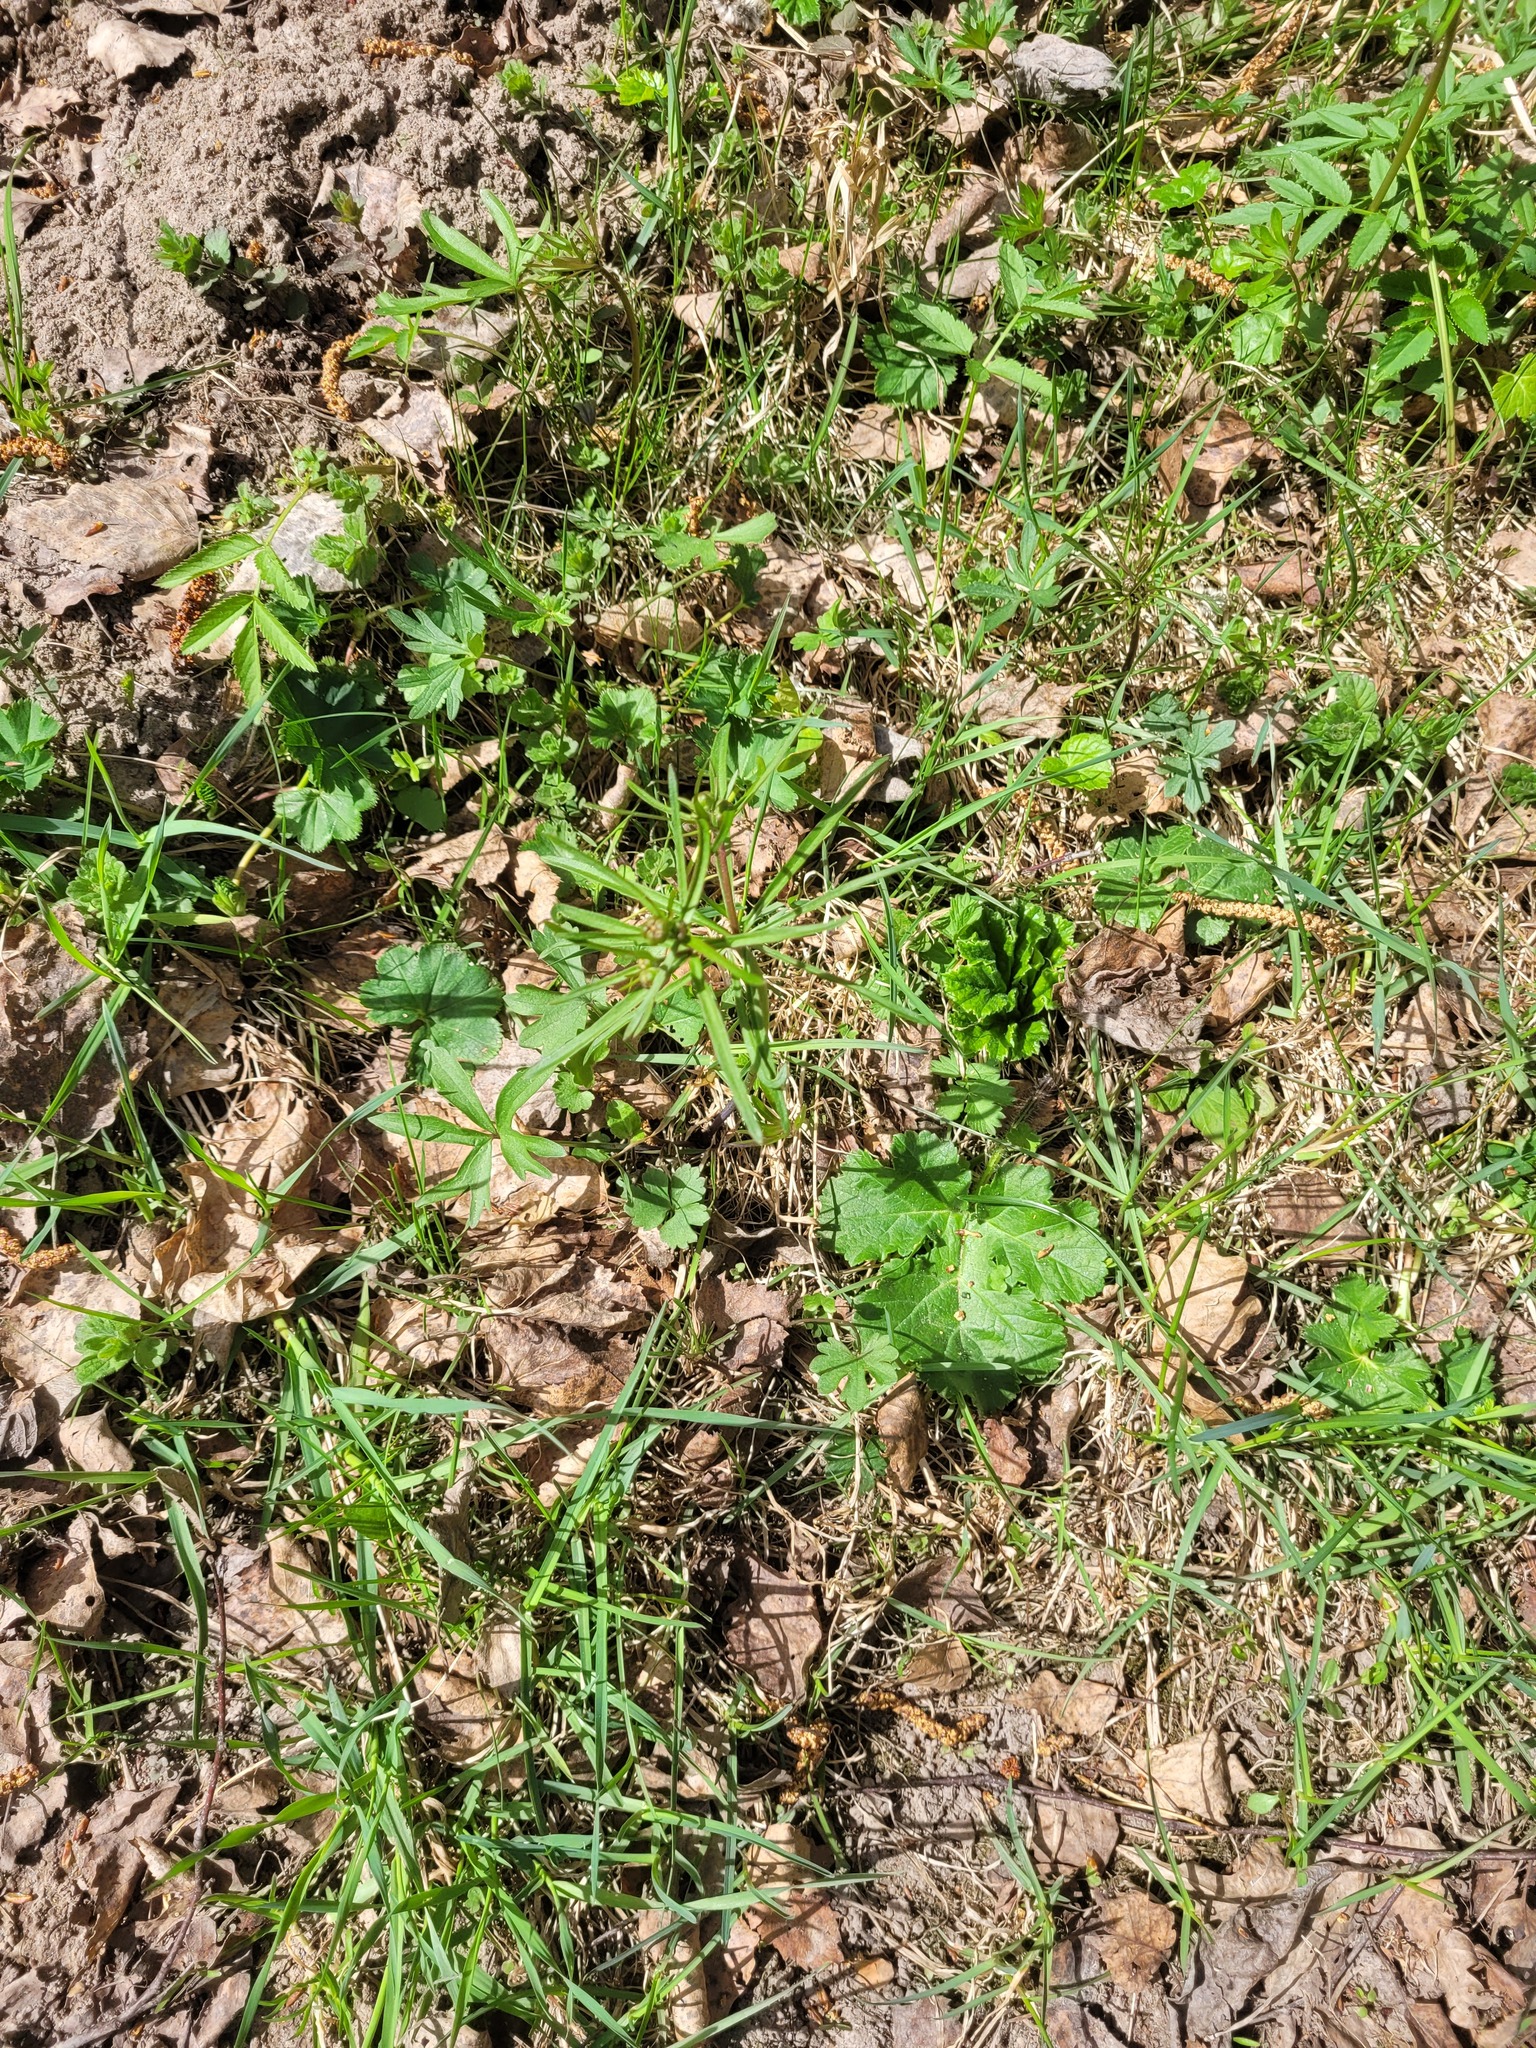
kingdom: Plantae
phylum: Tracheophyta
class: Magnoliopsida
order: Ranunculales
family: Ranunculaceae
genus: Ranunculus
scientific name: Ranunculus auricomus
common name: Goldilocks buttercup
